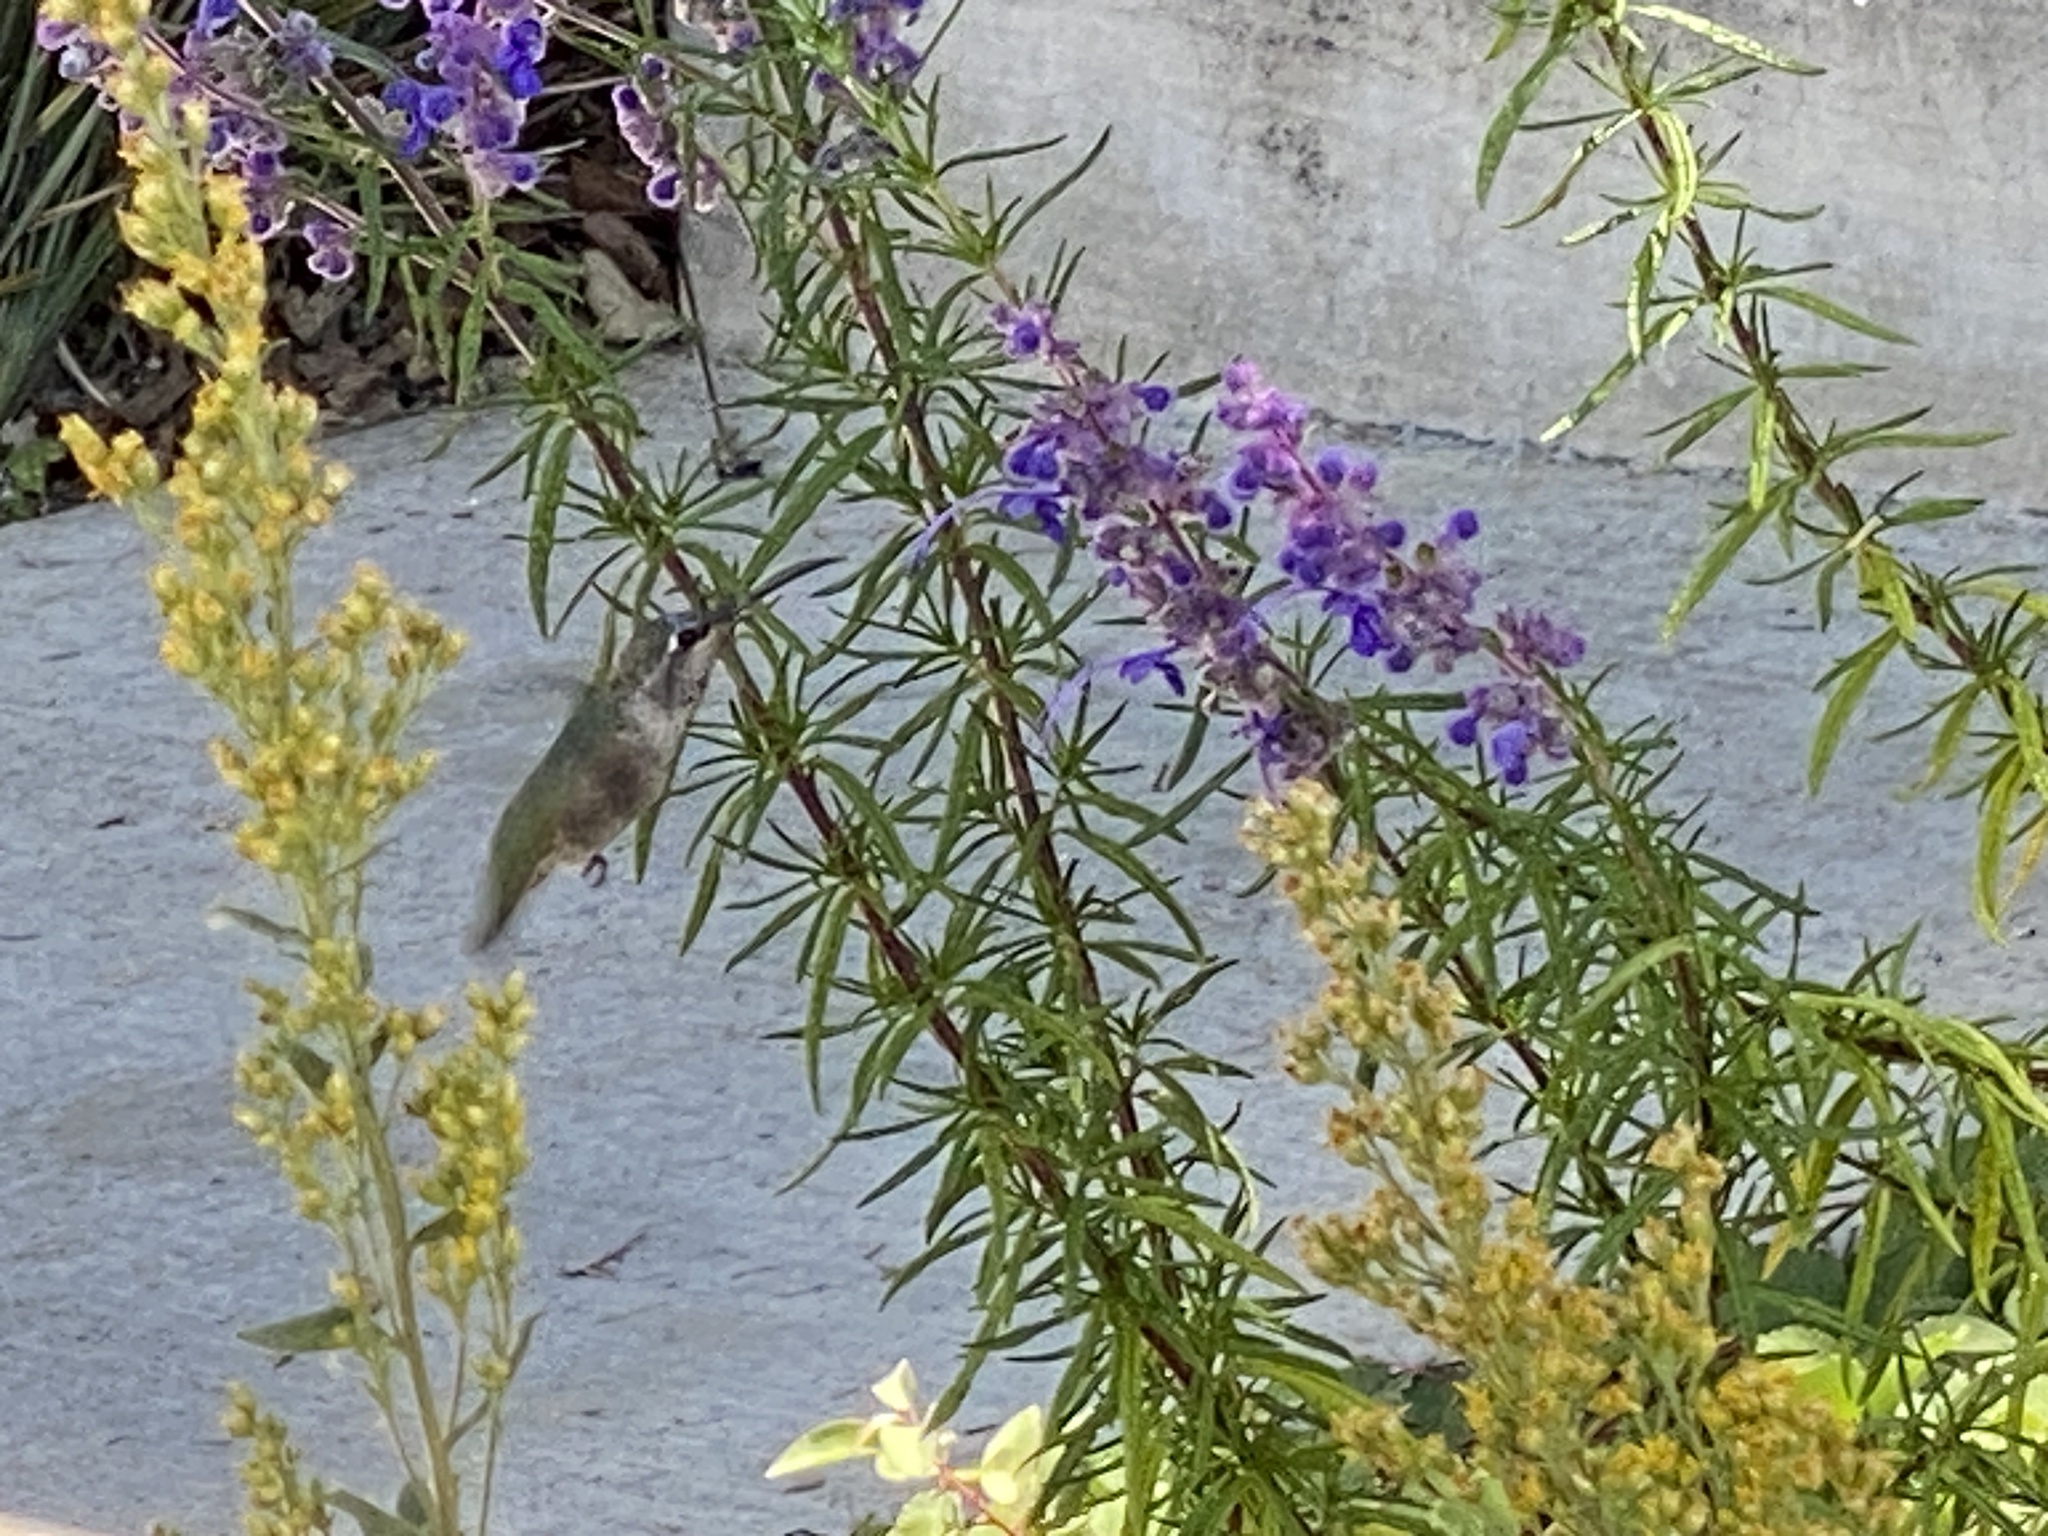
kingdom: Animalia
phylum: Chordata
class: Aves
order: Apodiformes
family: Trochilidae
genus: Calypte
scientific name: Calypte anna
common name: Anna's hummingbird
